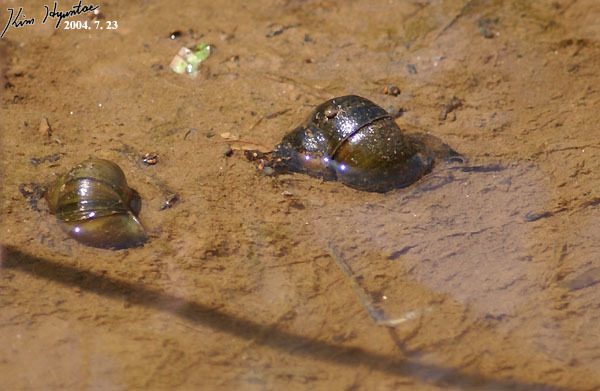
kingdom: Animalia
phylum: Mollusca
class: Gastropoda
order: Architaenioglossa
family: Viviparidae
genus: Cipangopaludina
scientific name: Cipangopaludina chinensis
